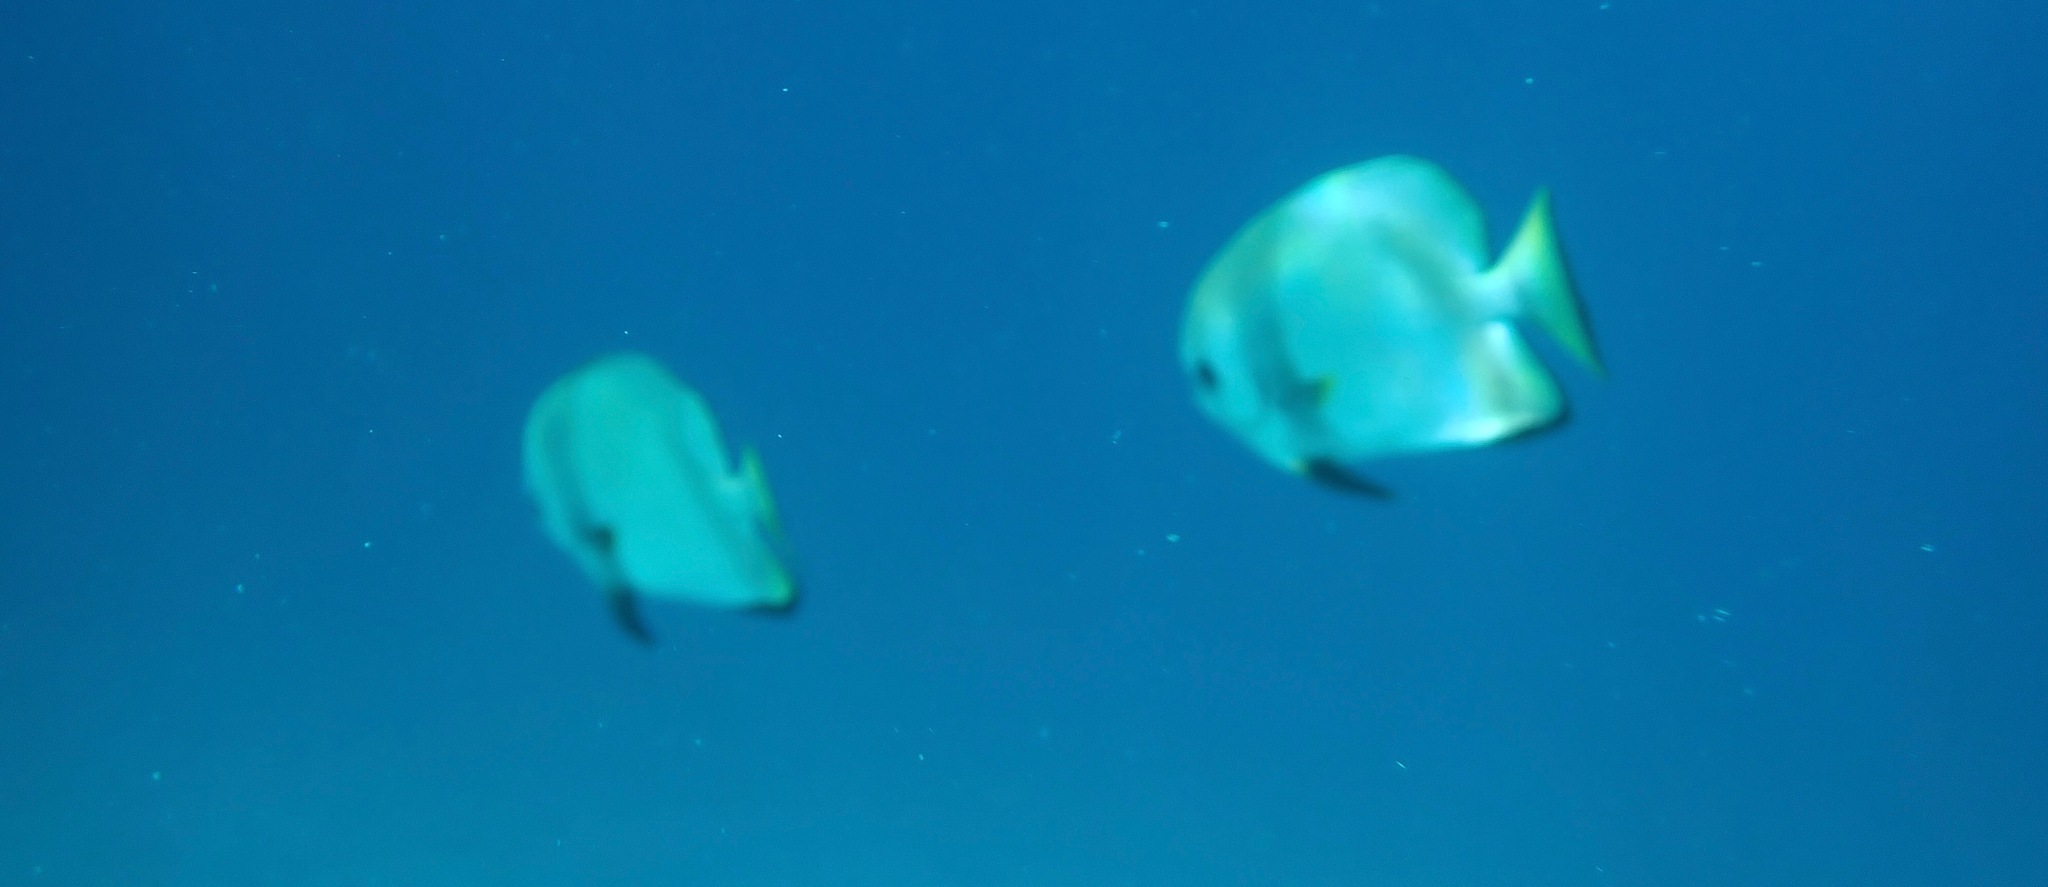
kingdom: Animalia
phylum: Chordata
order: Perciformes
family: Ephippidae
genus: Platax
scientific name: Platax boersii
